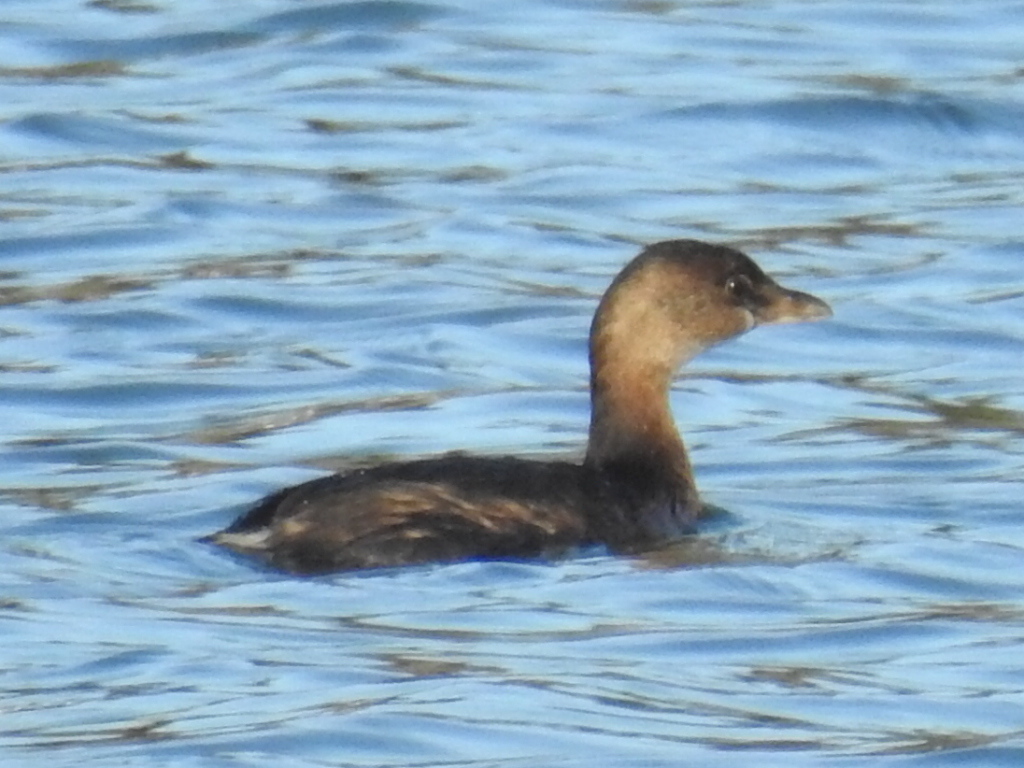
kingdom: Animalia
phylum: Chordata
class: Aves
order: Podicipediformes
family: Podicipedidae
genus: Podilymbus
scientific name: Podilymbus podiceps
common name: Pied-billed grebe
